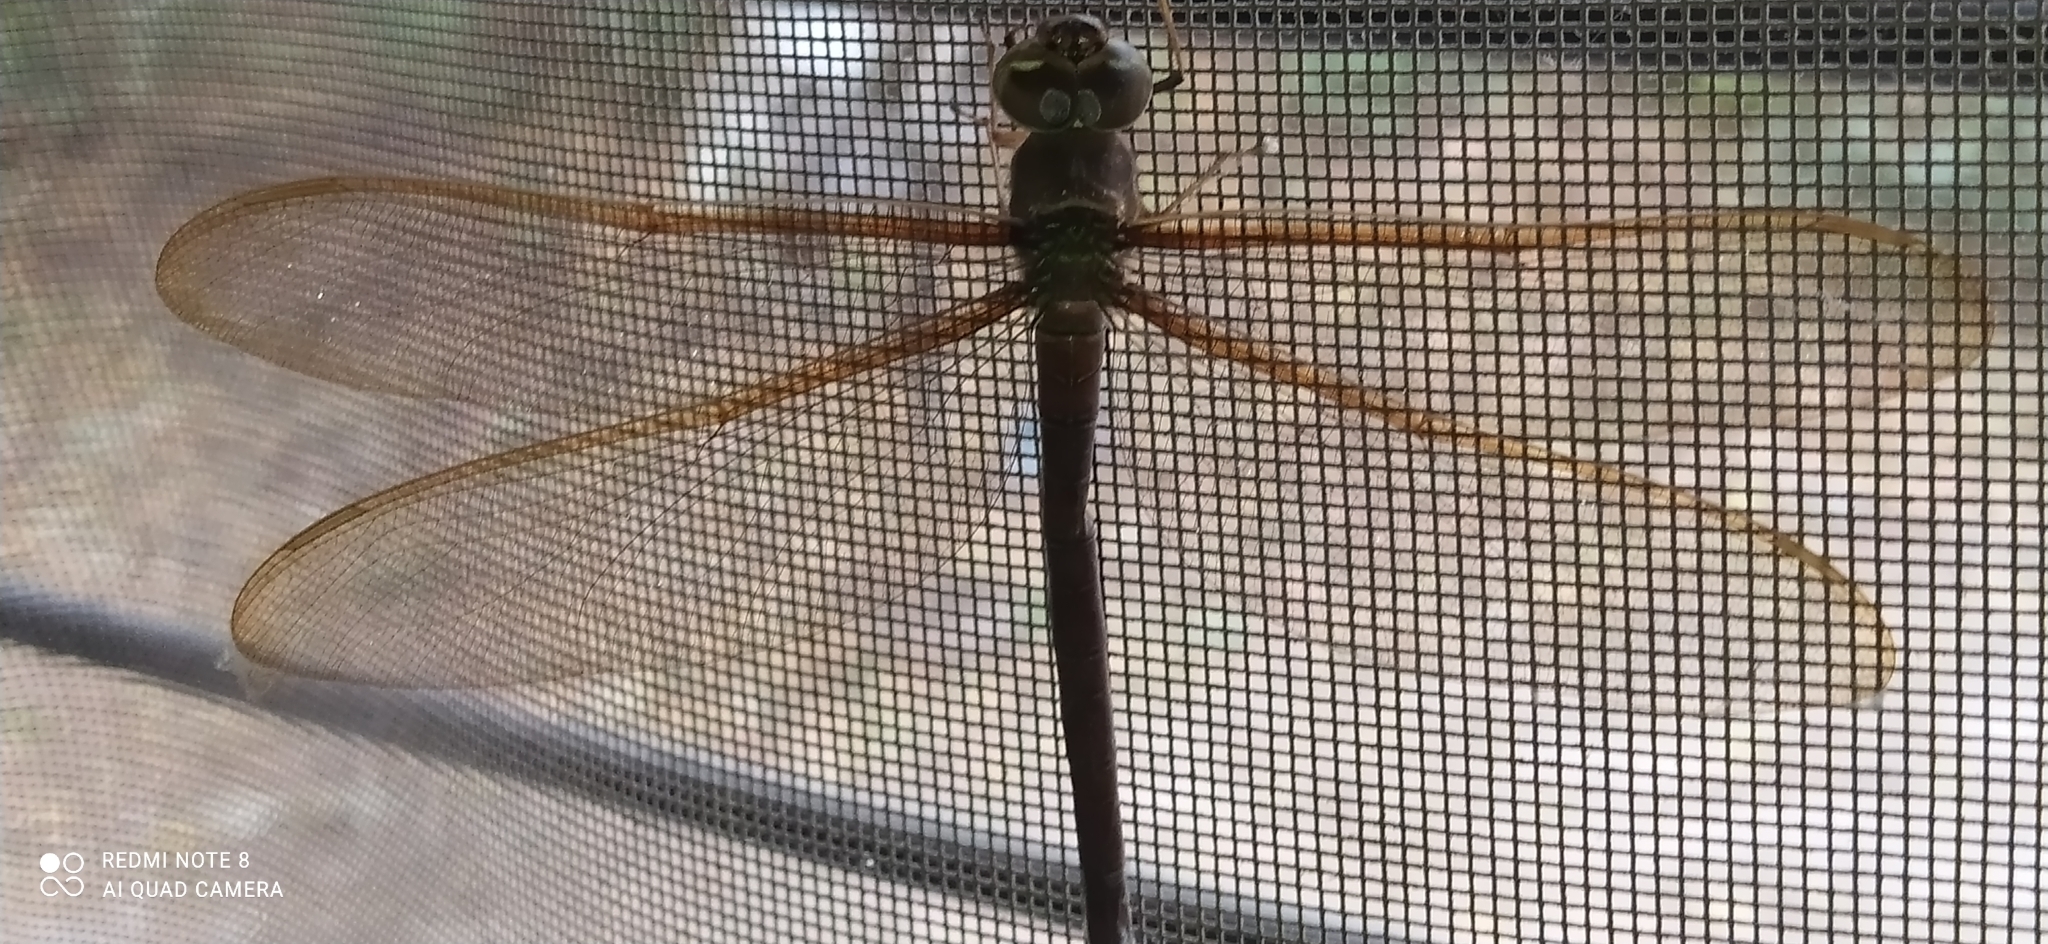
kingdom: Animalia
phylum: Arthropoda
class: Insecta
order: Odonata
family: Aeshnidae
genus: Gynacantha
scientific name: Gynacantha bifida
